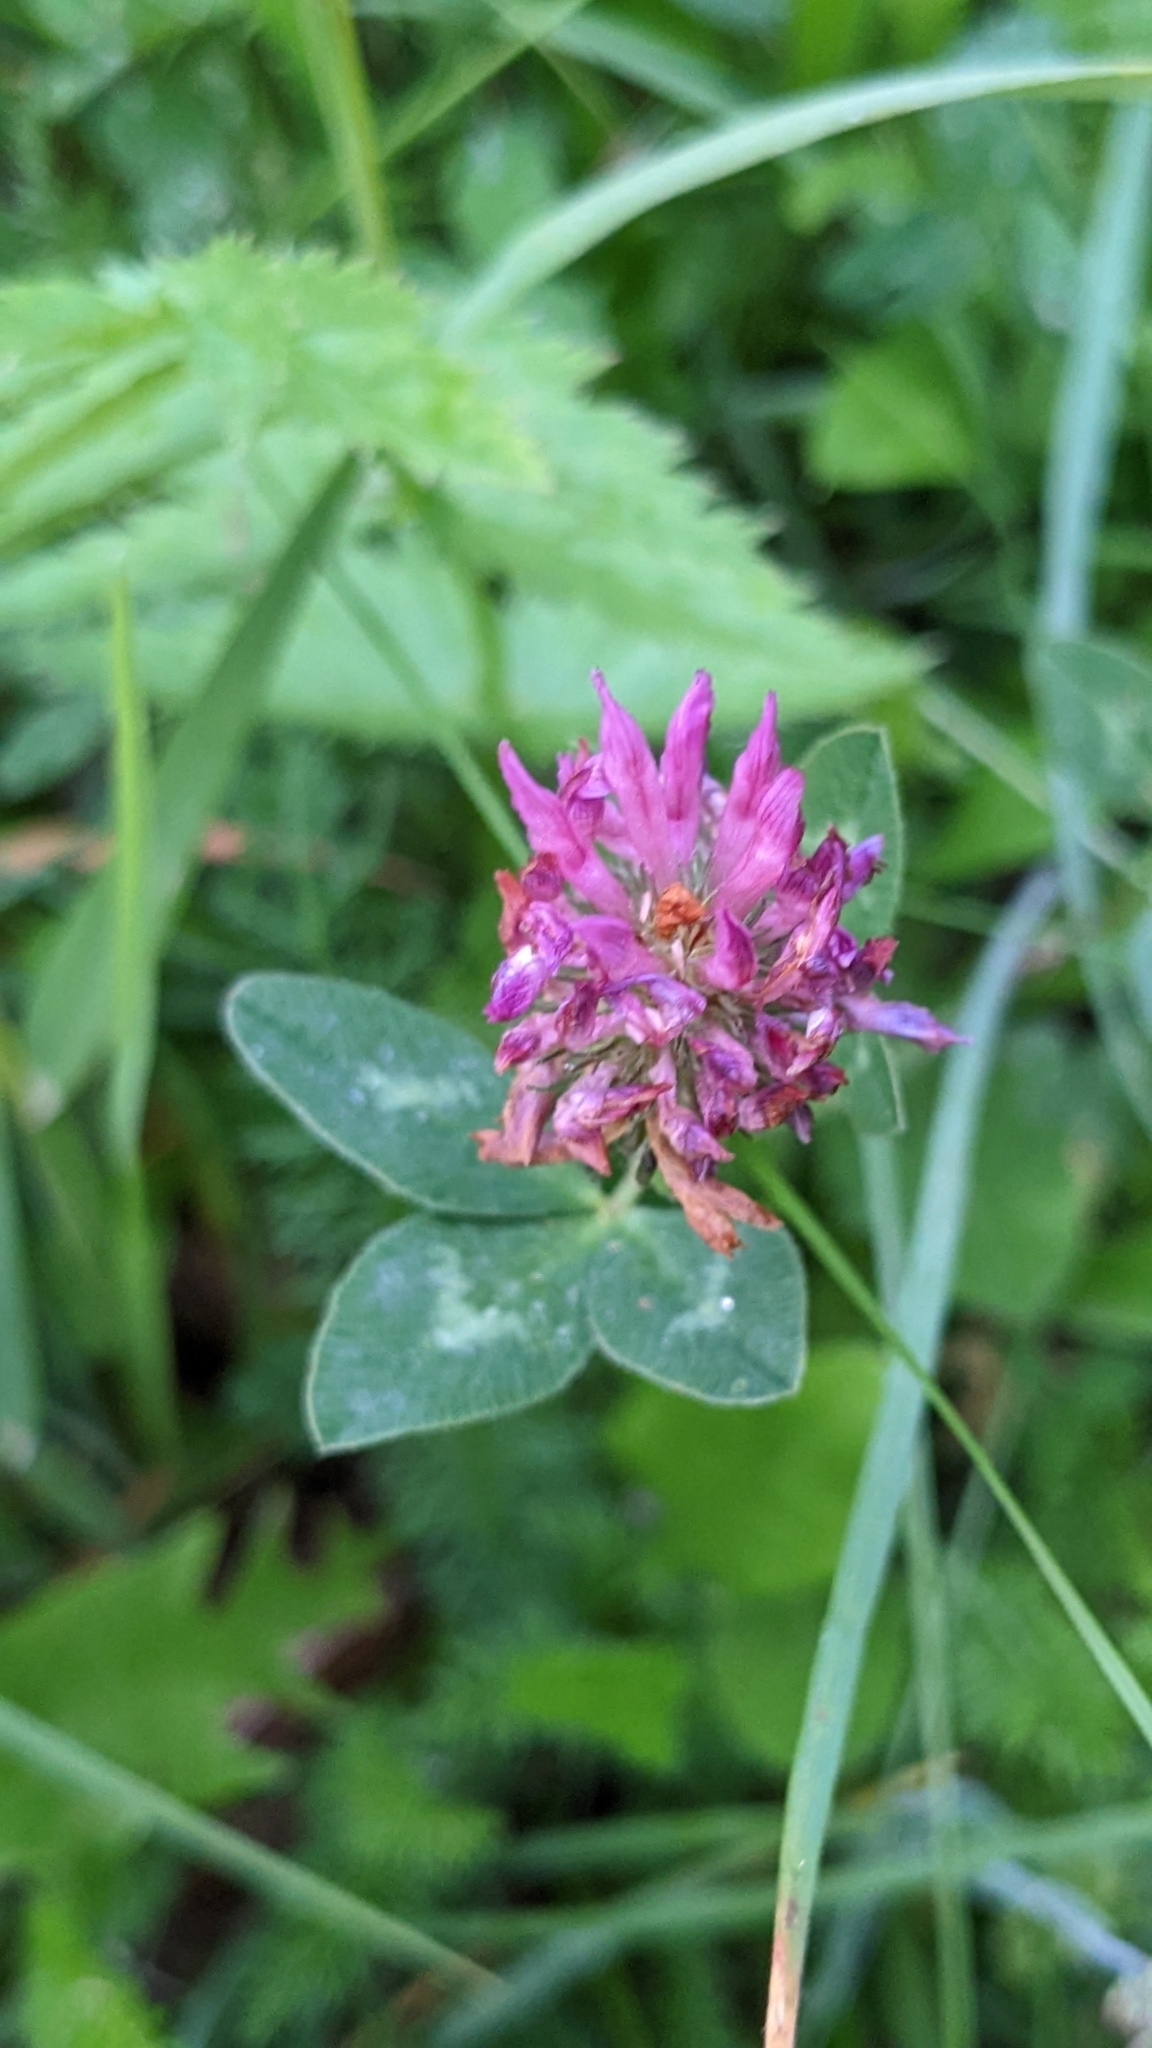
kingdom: Plantae
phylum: Tracheophyta
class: Magnoliopsida
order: Fabales
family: Fabaceae
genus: Trifolium
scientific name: Trifolium pratense
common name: Red clover
